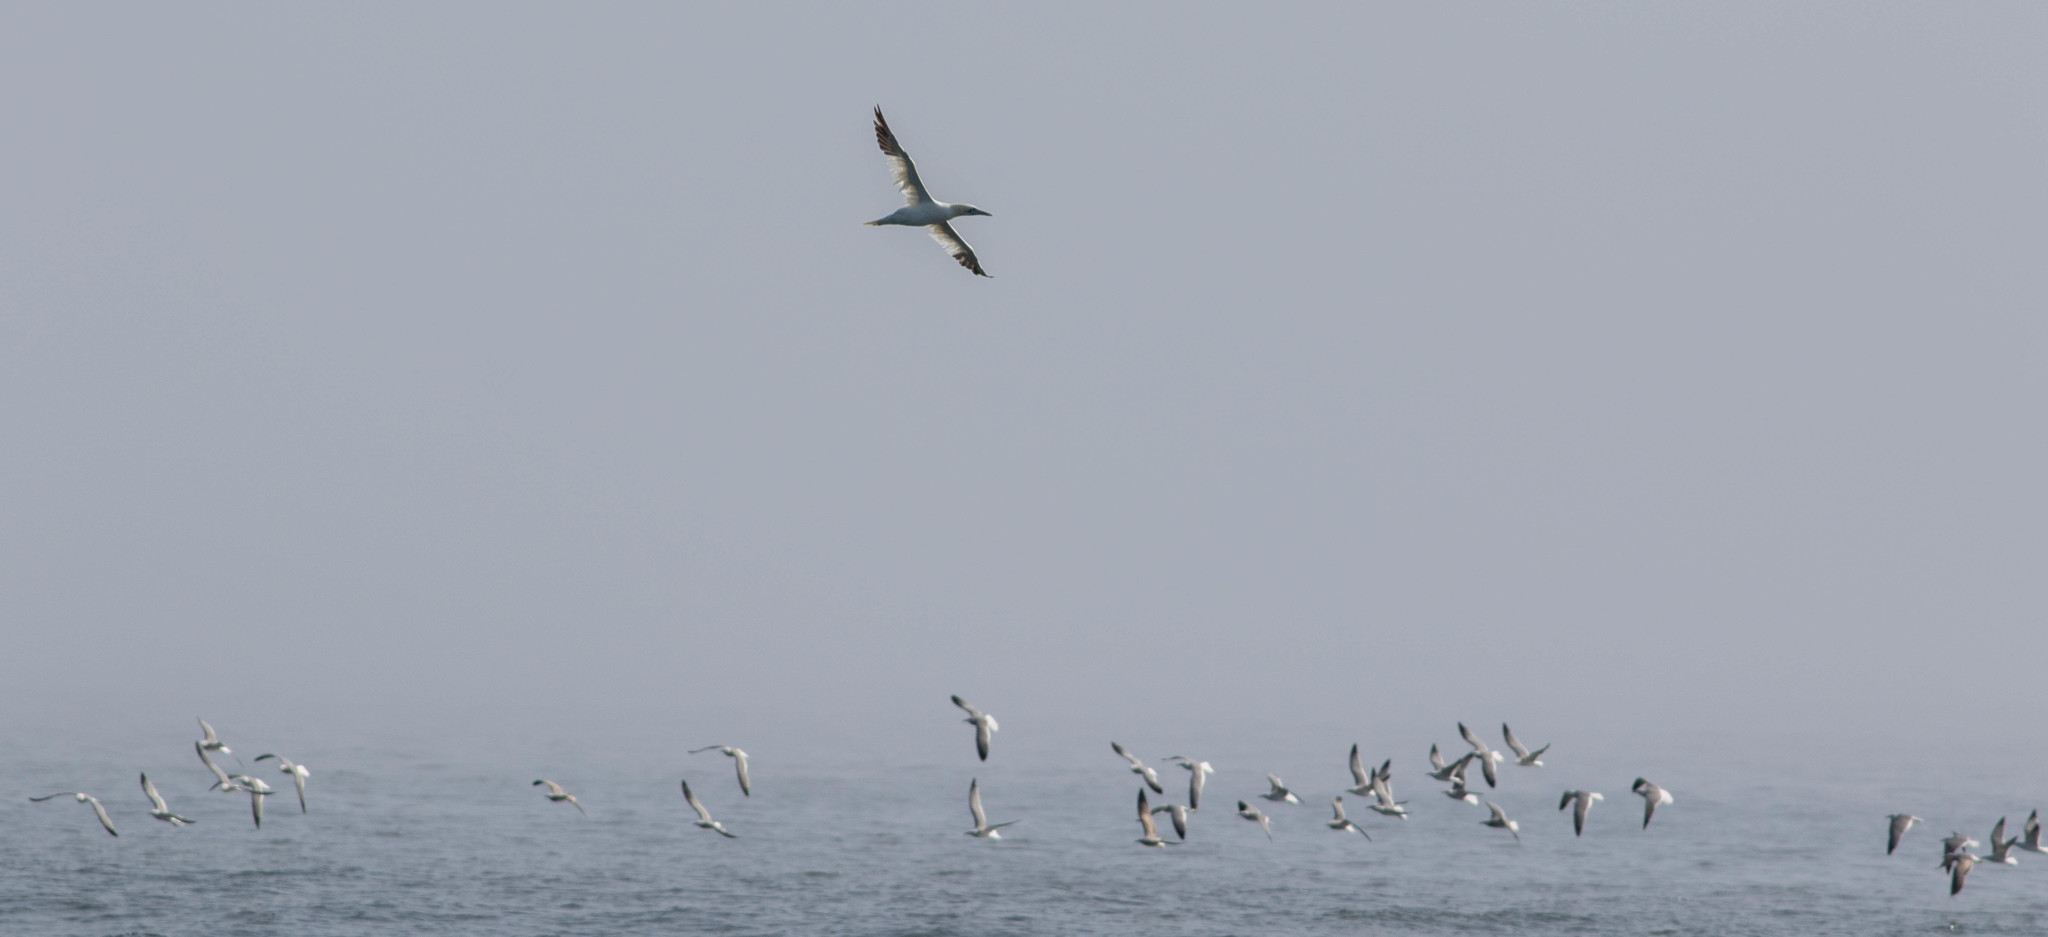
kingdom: Animalia
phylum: Chordata
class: Aves
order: Suliformes
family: Sulidae
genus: Morus
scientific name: Morus bassanus
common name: Northern gannet
